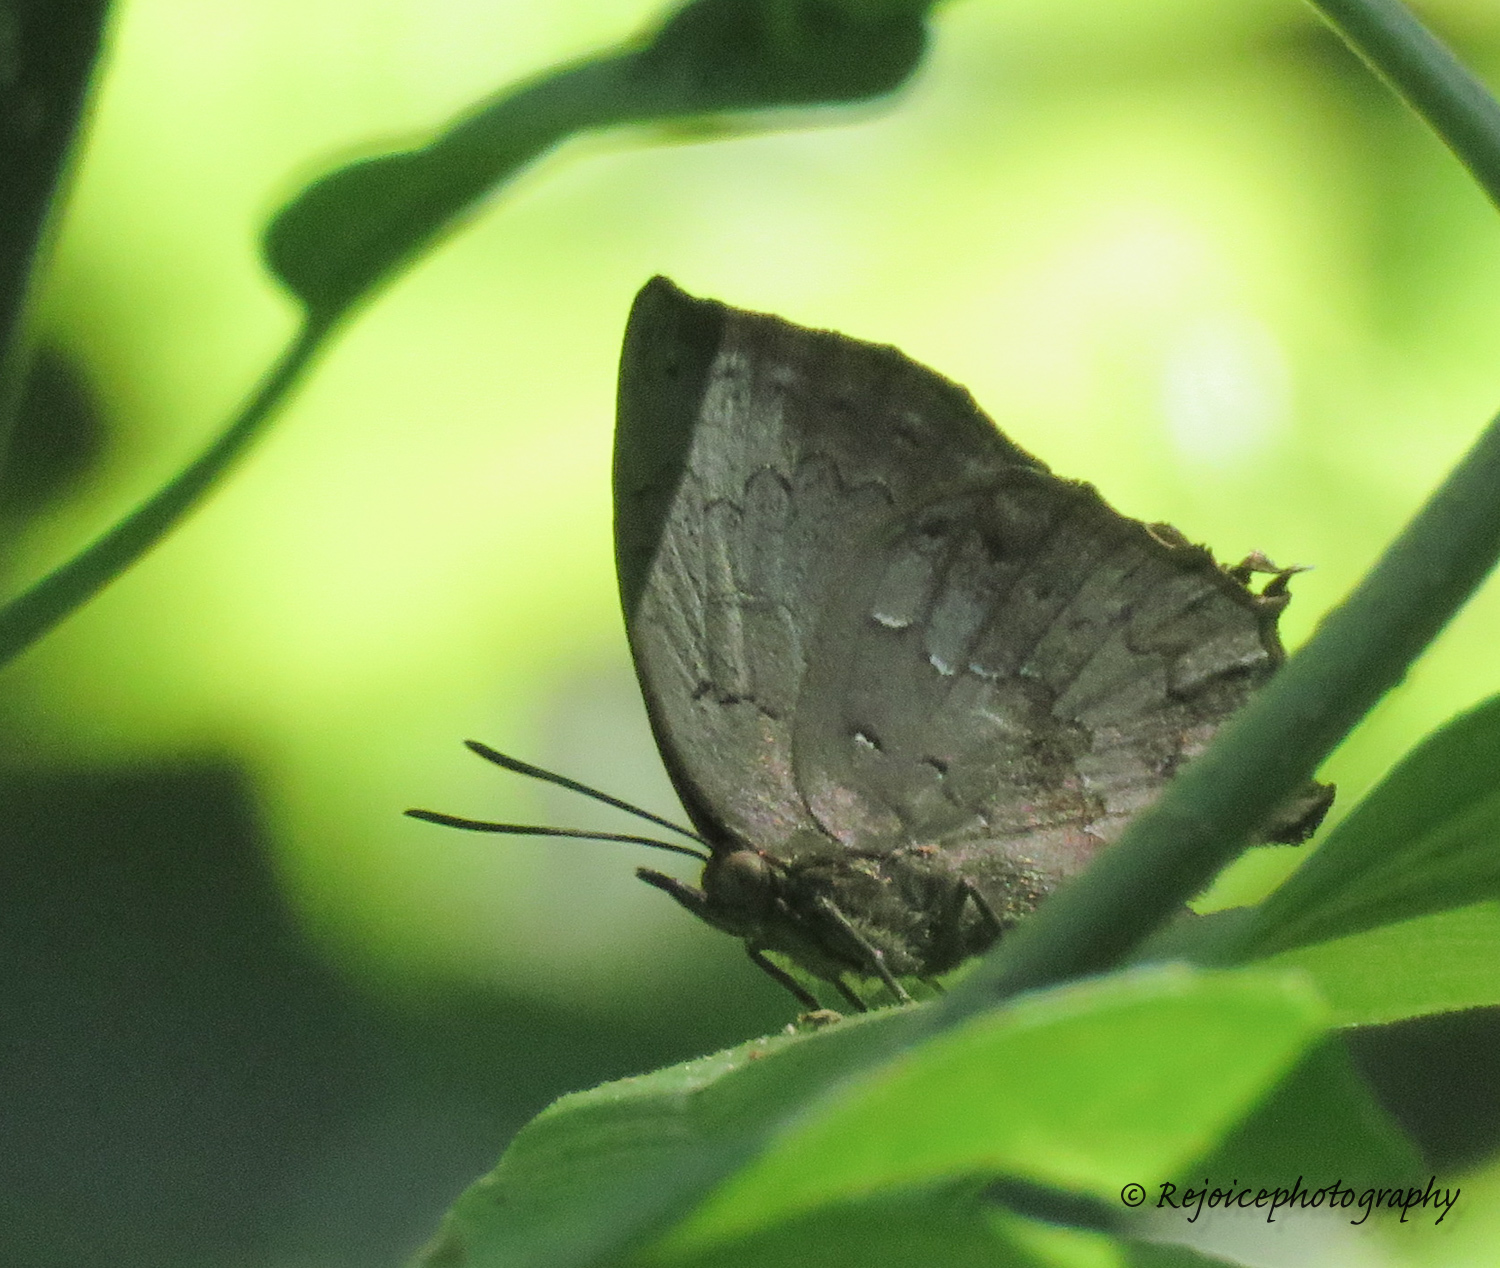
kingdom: Animalia
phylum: Arthropoda
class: Insecta
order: Lepidoptera
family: Lycaenidae
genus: Surendra
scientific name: Surendra quercetorum
